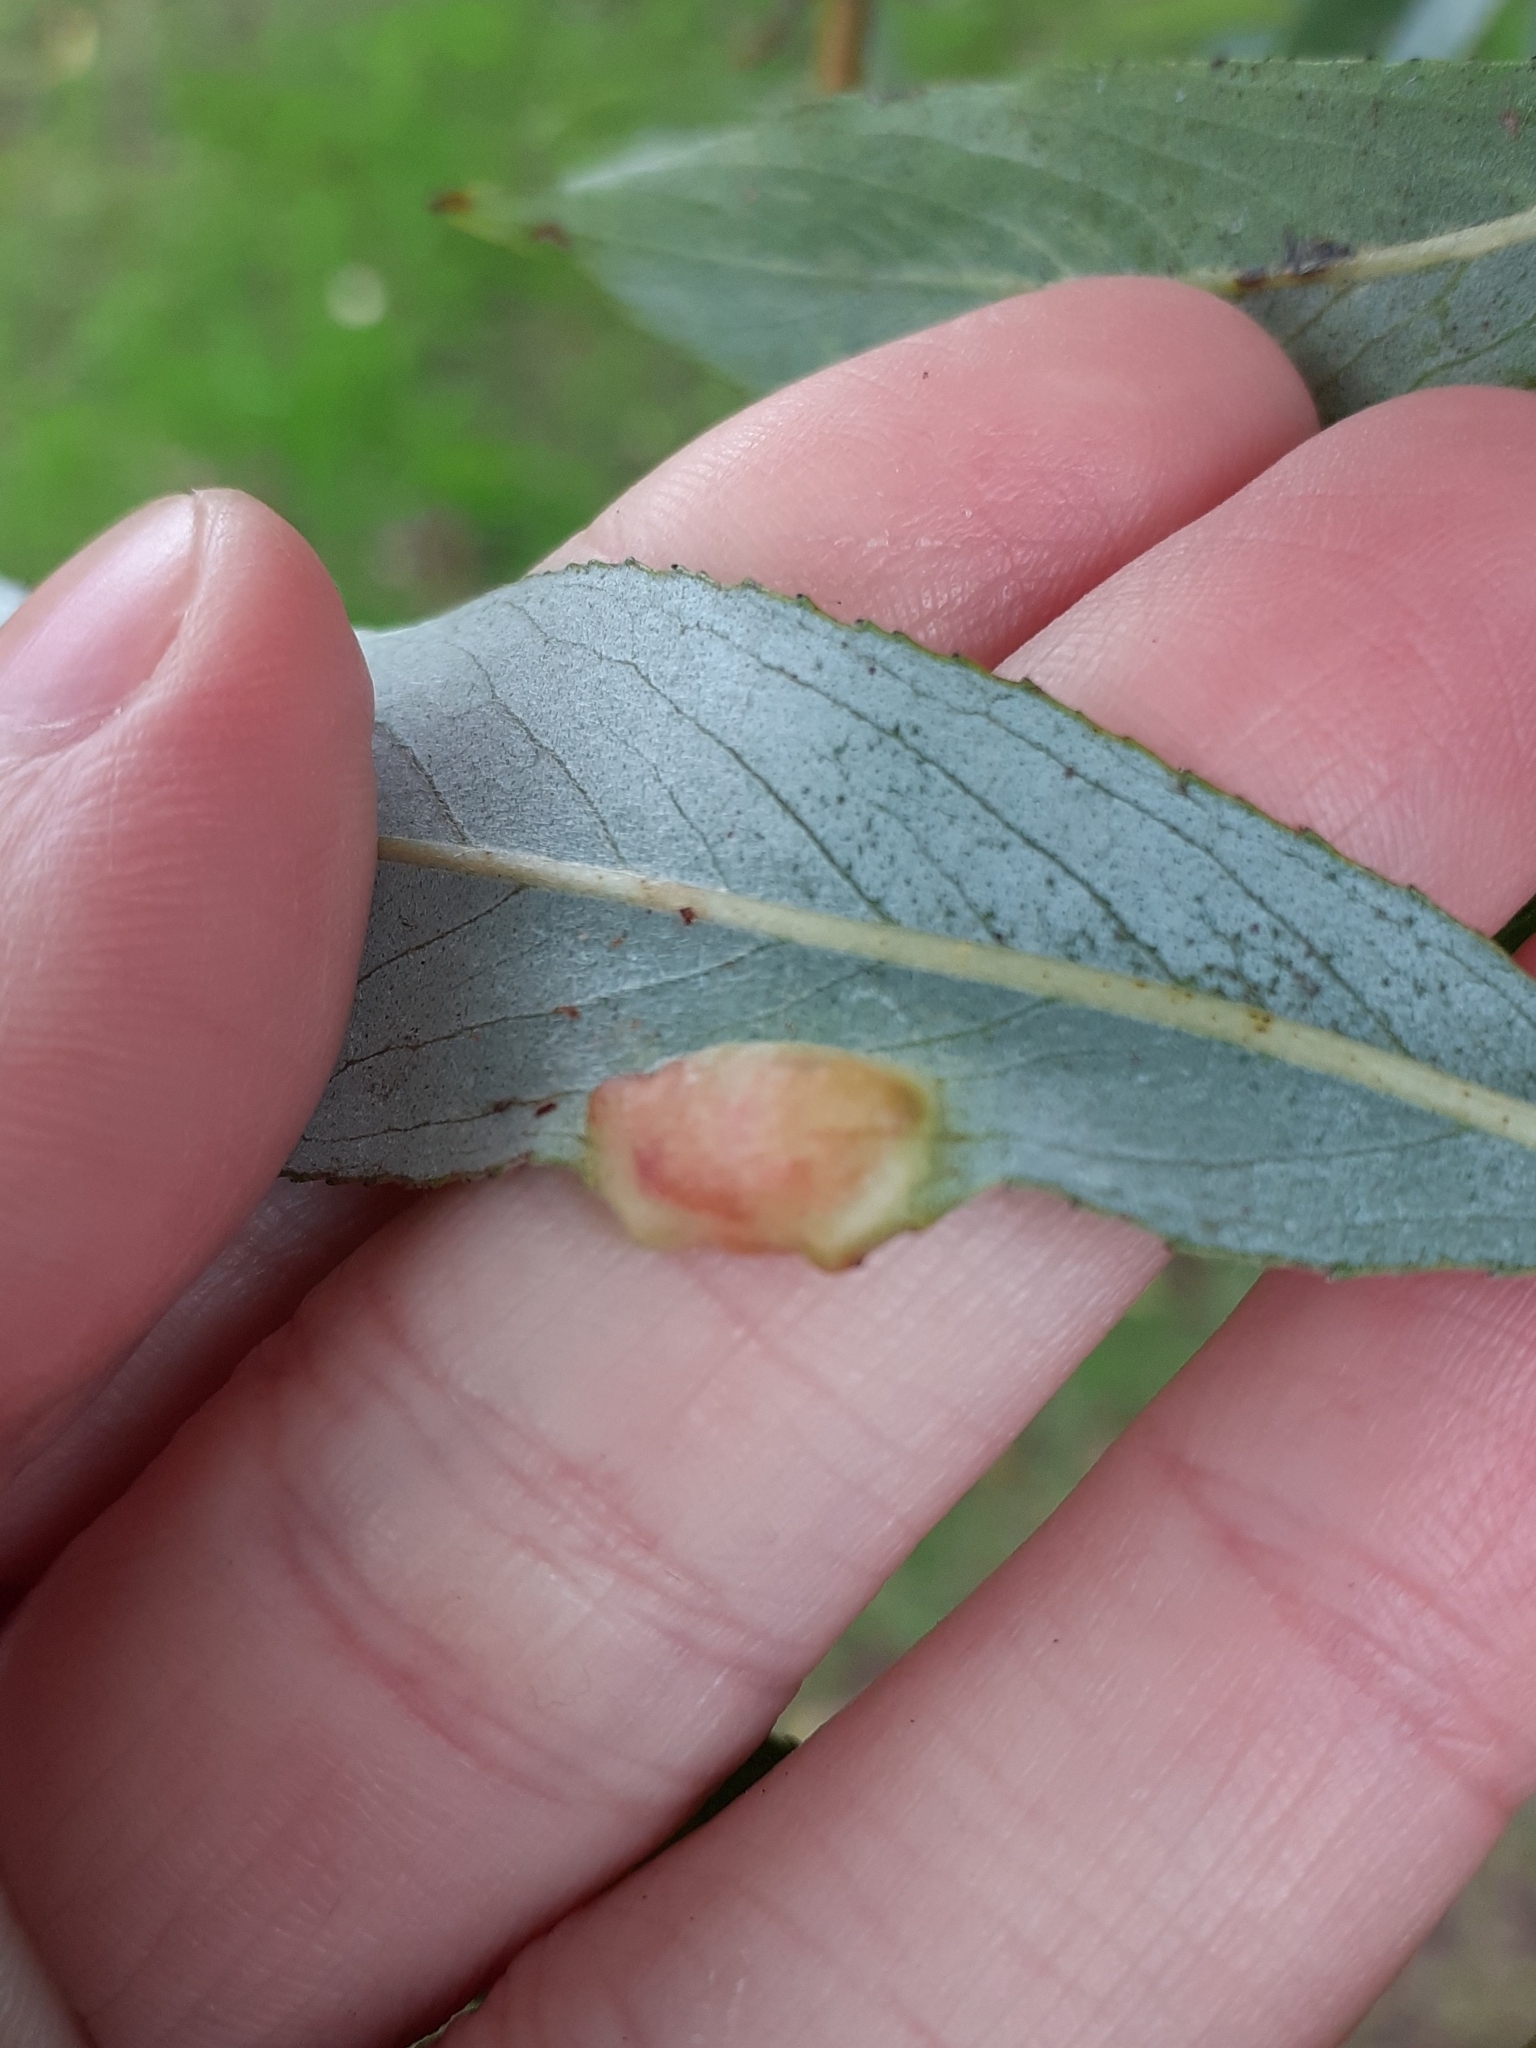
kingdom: Animalia
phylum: Arthropoda
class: Insecta
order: Hymenoptera
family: Tenthredinidae
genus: Pontania
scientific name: Pontania proxima
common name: Common sawfly
